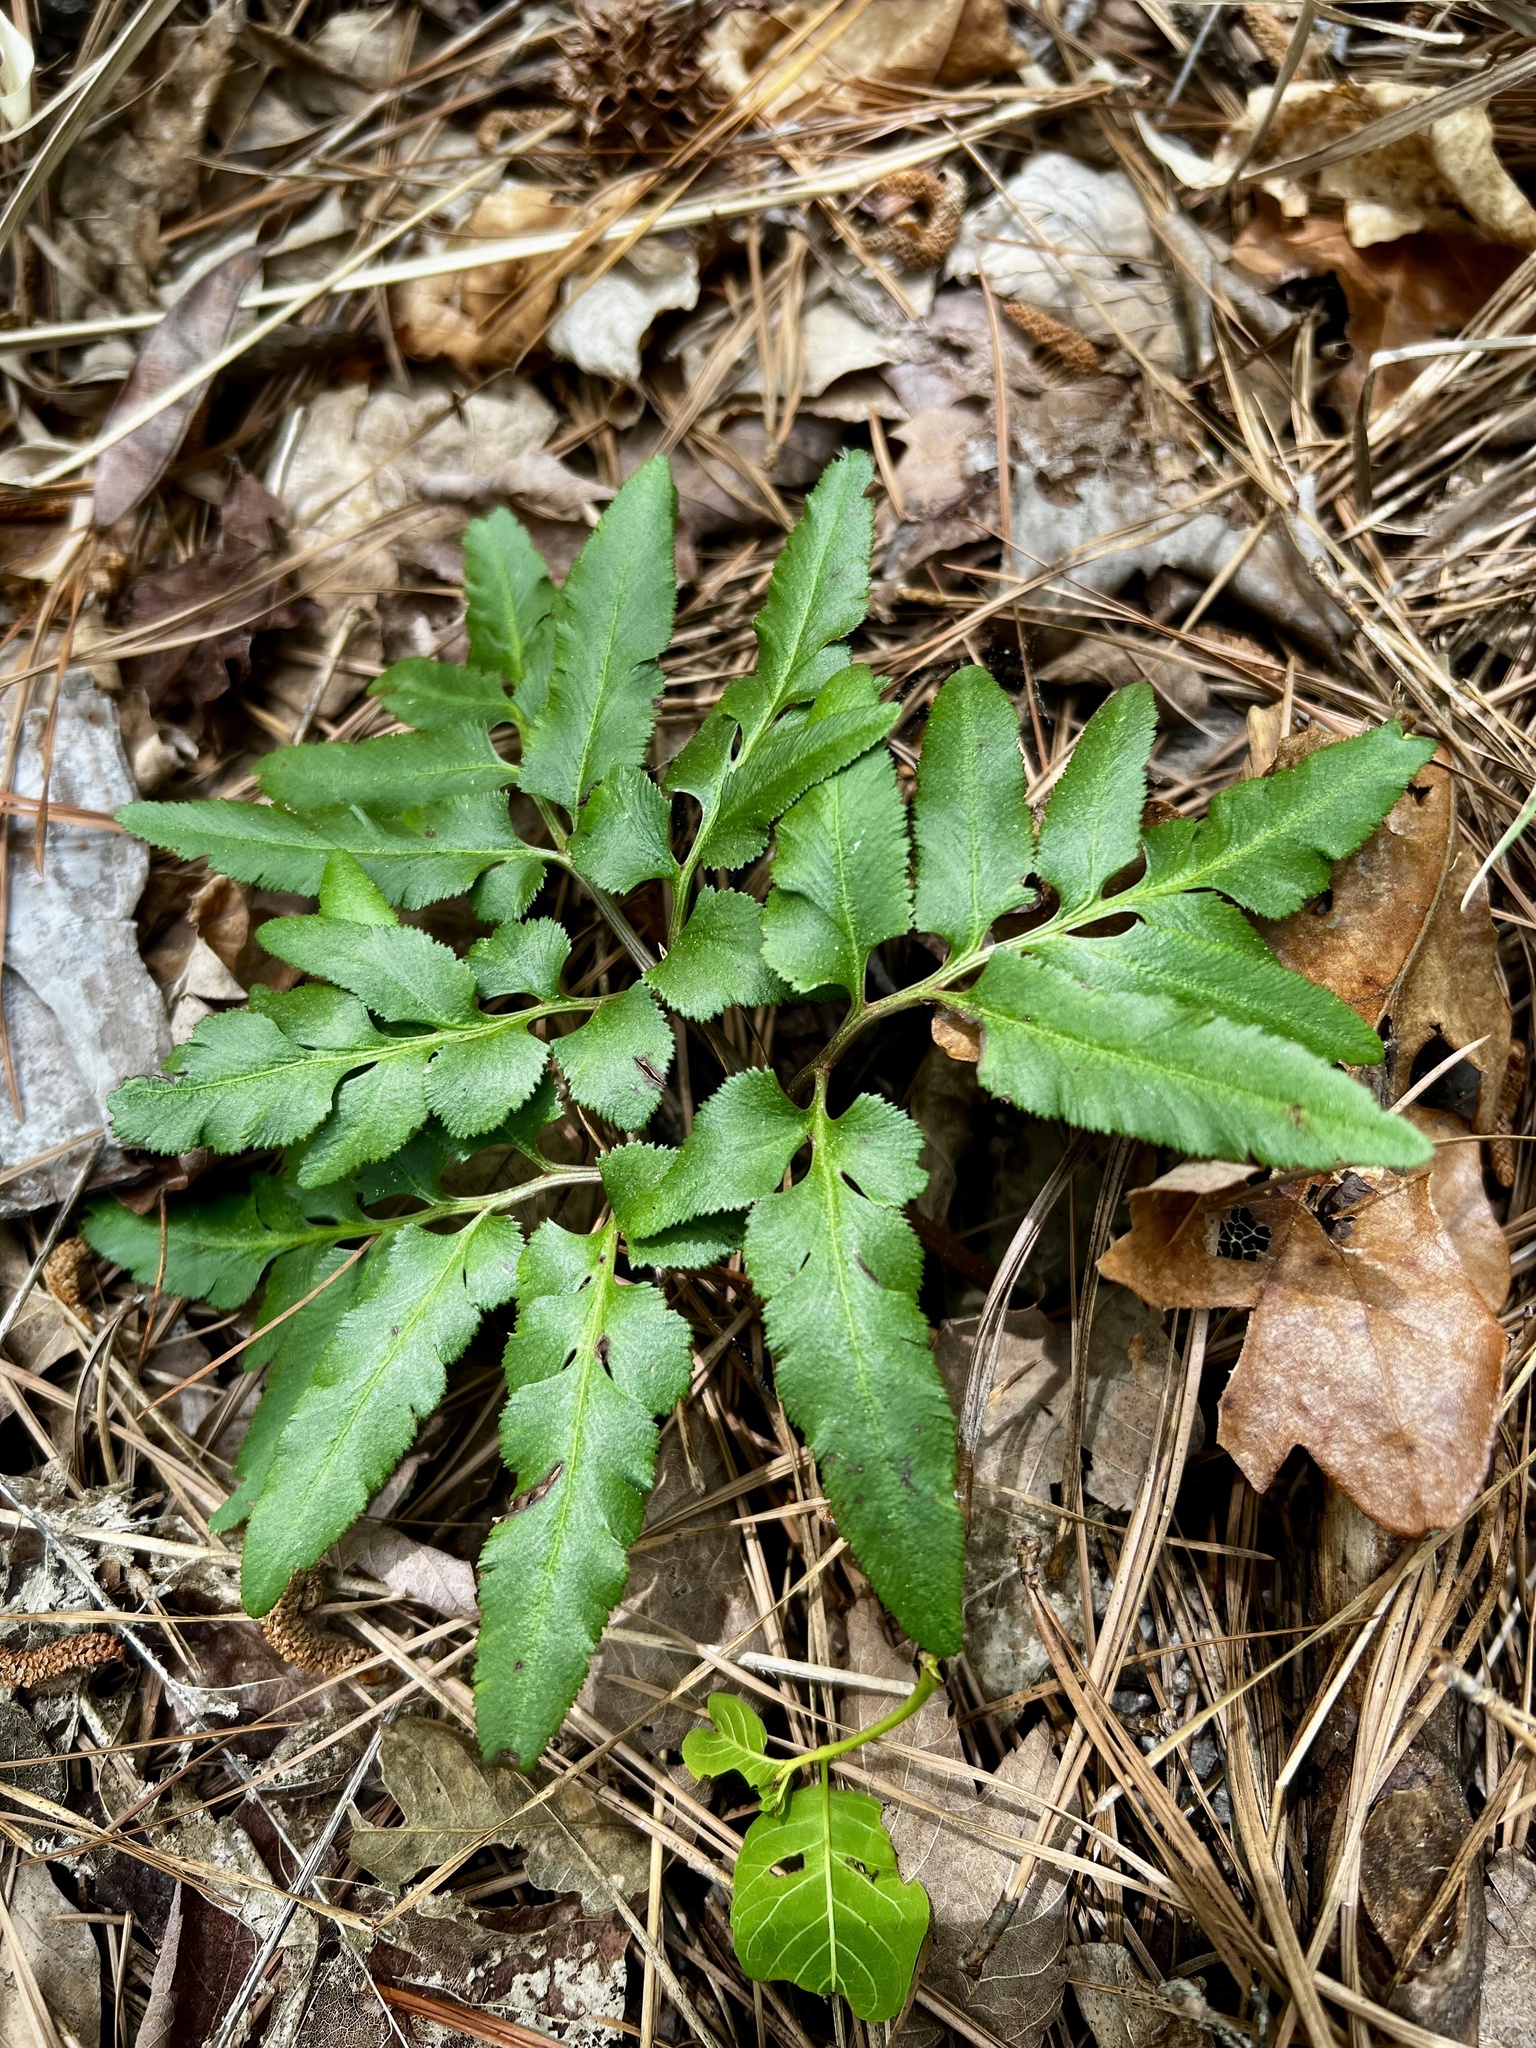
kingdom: Plantae
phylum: Tracheophyta
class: Polypodiopsida
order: Ophioglossales
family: Ophioglossaceae
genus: Sceptridium
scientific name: Sceptridium biternatum
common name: Sparse-lobed grapefern
